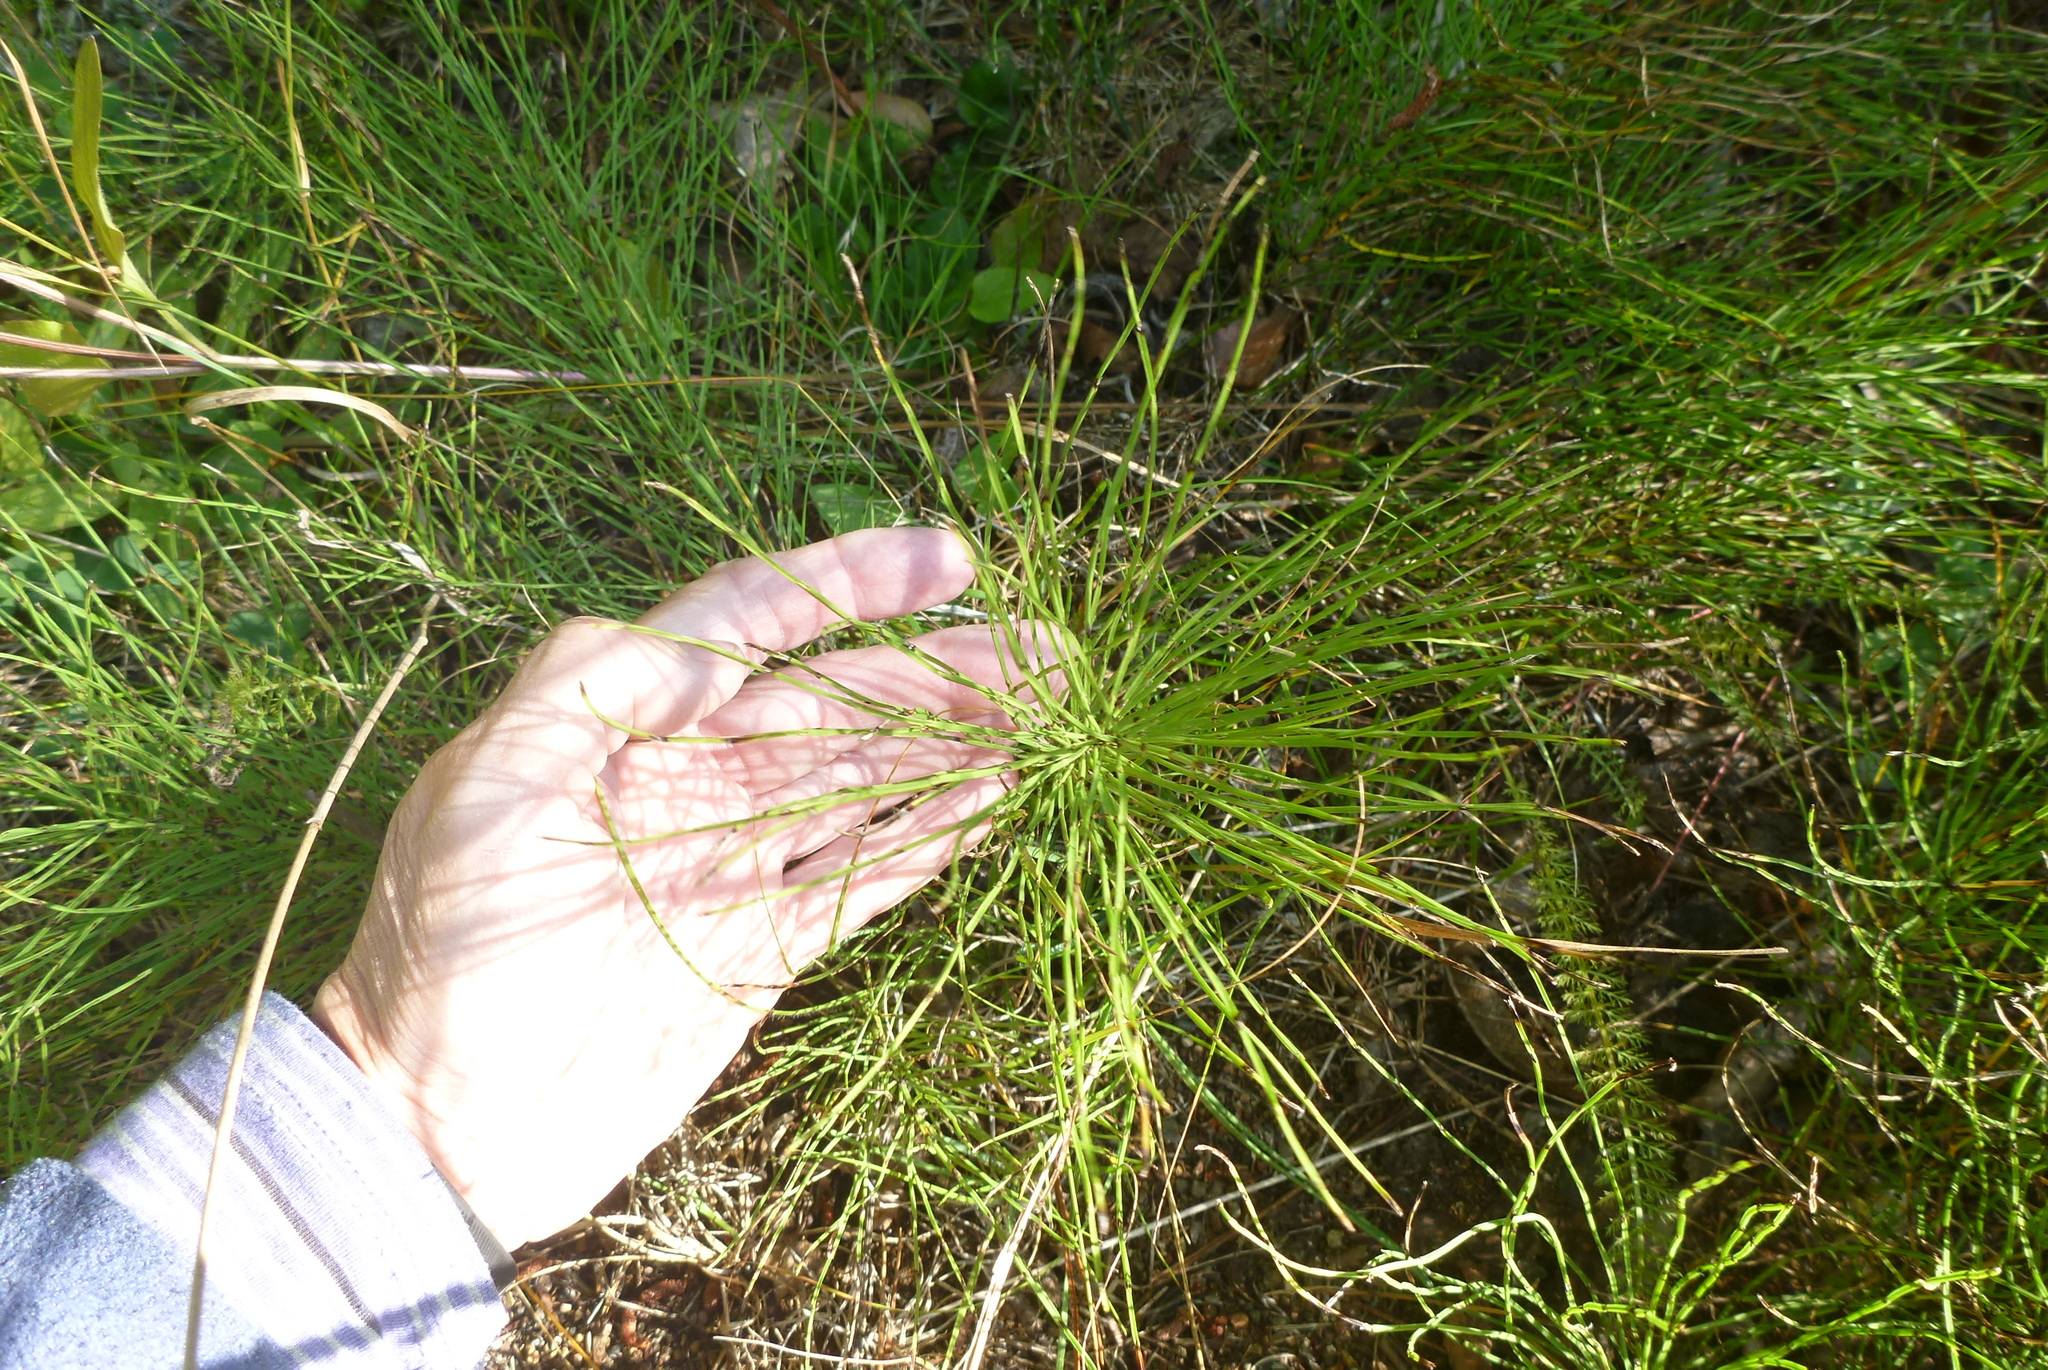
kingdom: Plantae
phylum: Tracheophyta
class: Polypodiopsida
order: Equisetales
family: Equisetaceae
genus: Equisetum
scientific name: Equisetum arvense
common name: Field horsetail
